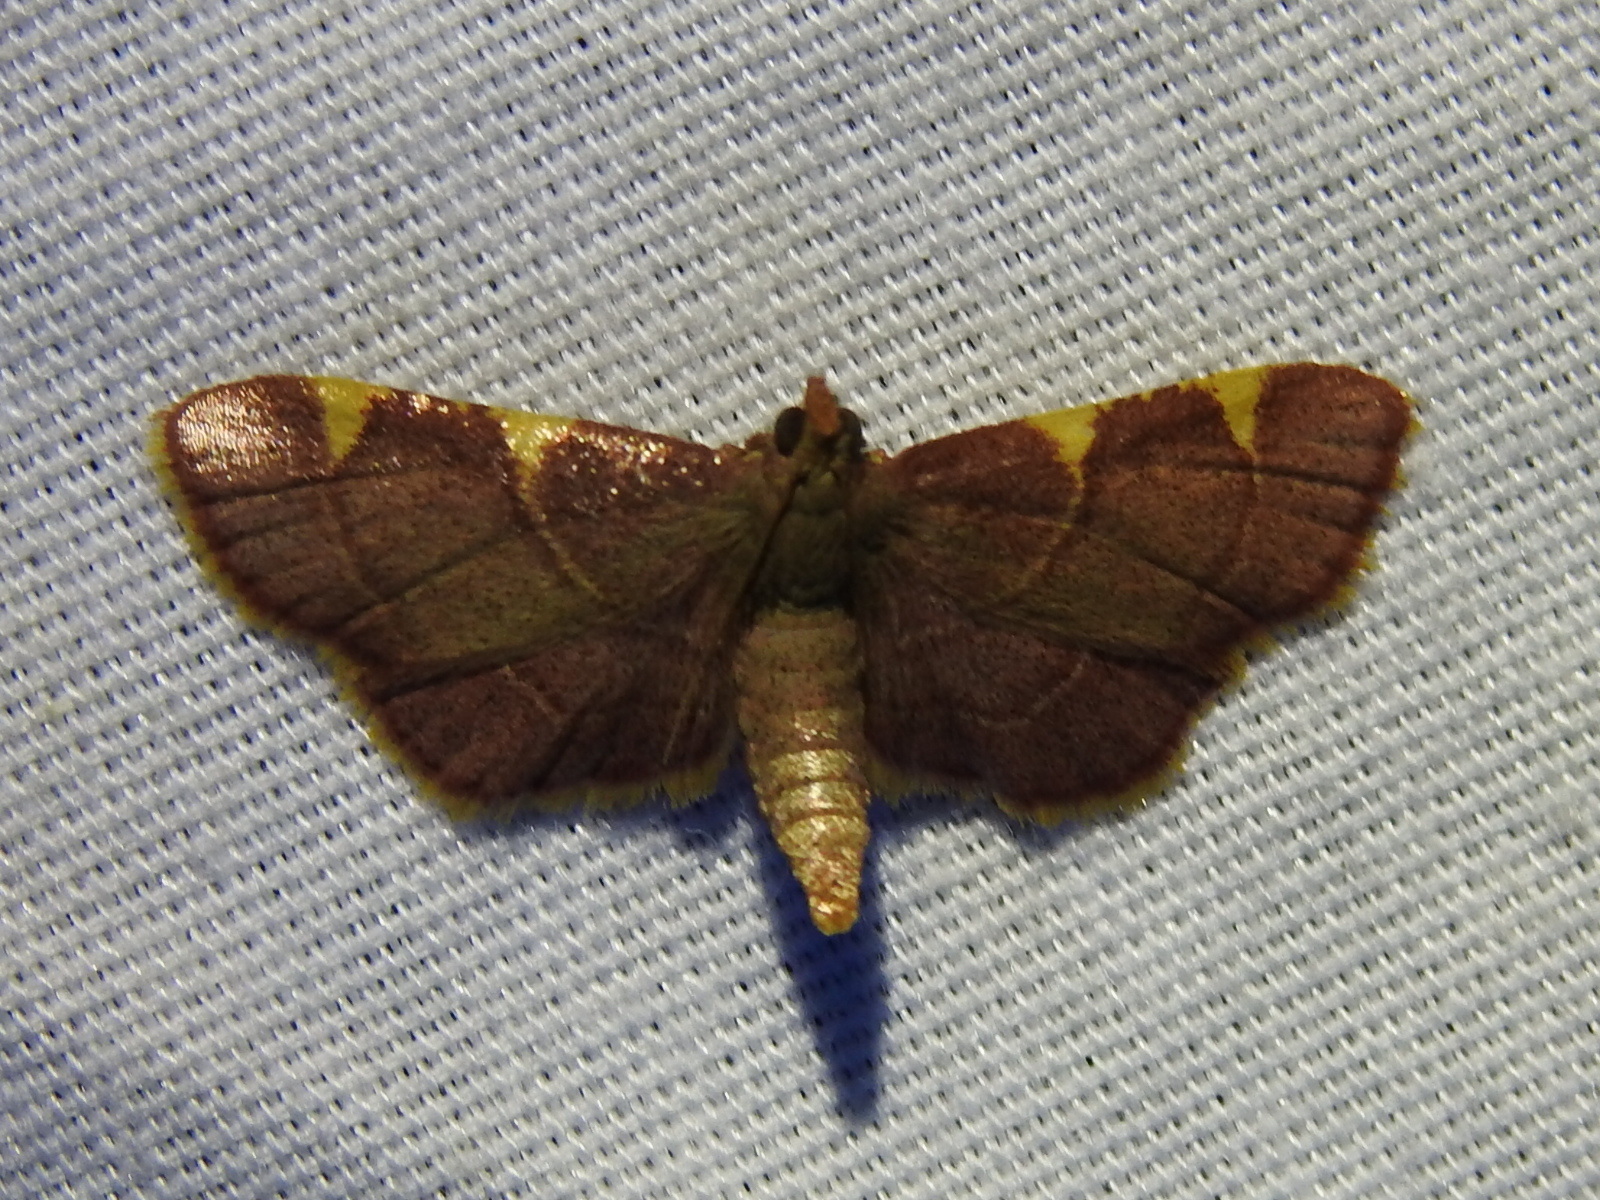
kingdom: Animalia
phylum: Arthropoda
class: Insecta
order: Lepidoptera
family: Pyralidae
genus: Hypsopygia
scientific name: Hypsopygia olinalis
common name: Yellow-fringed dolichomia moth
